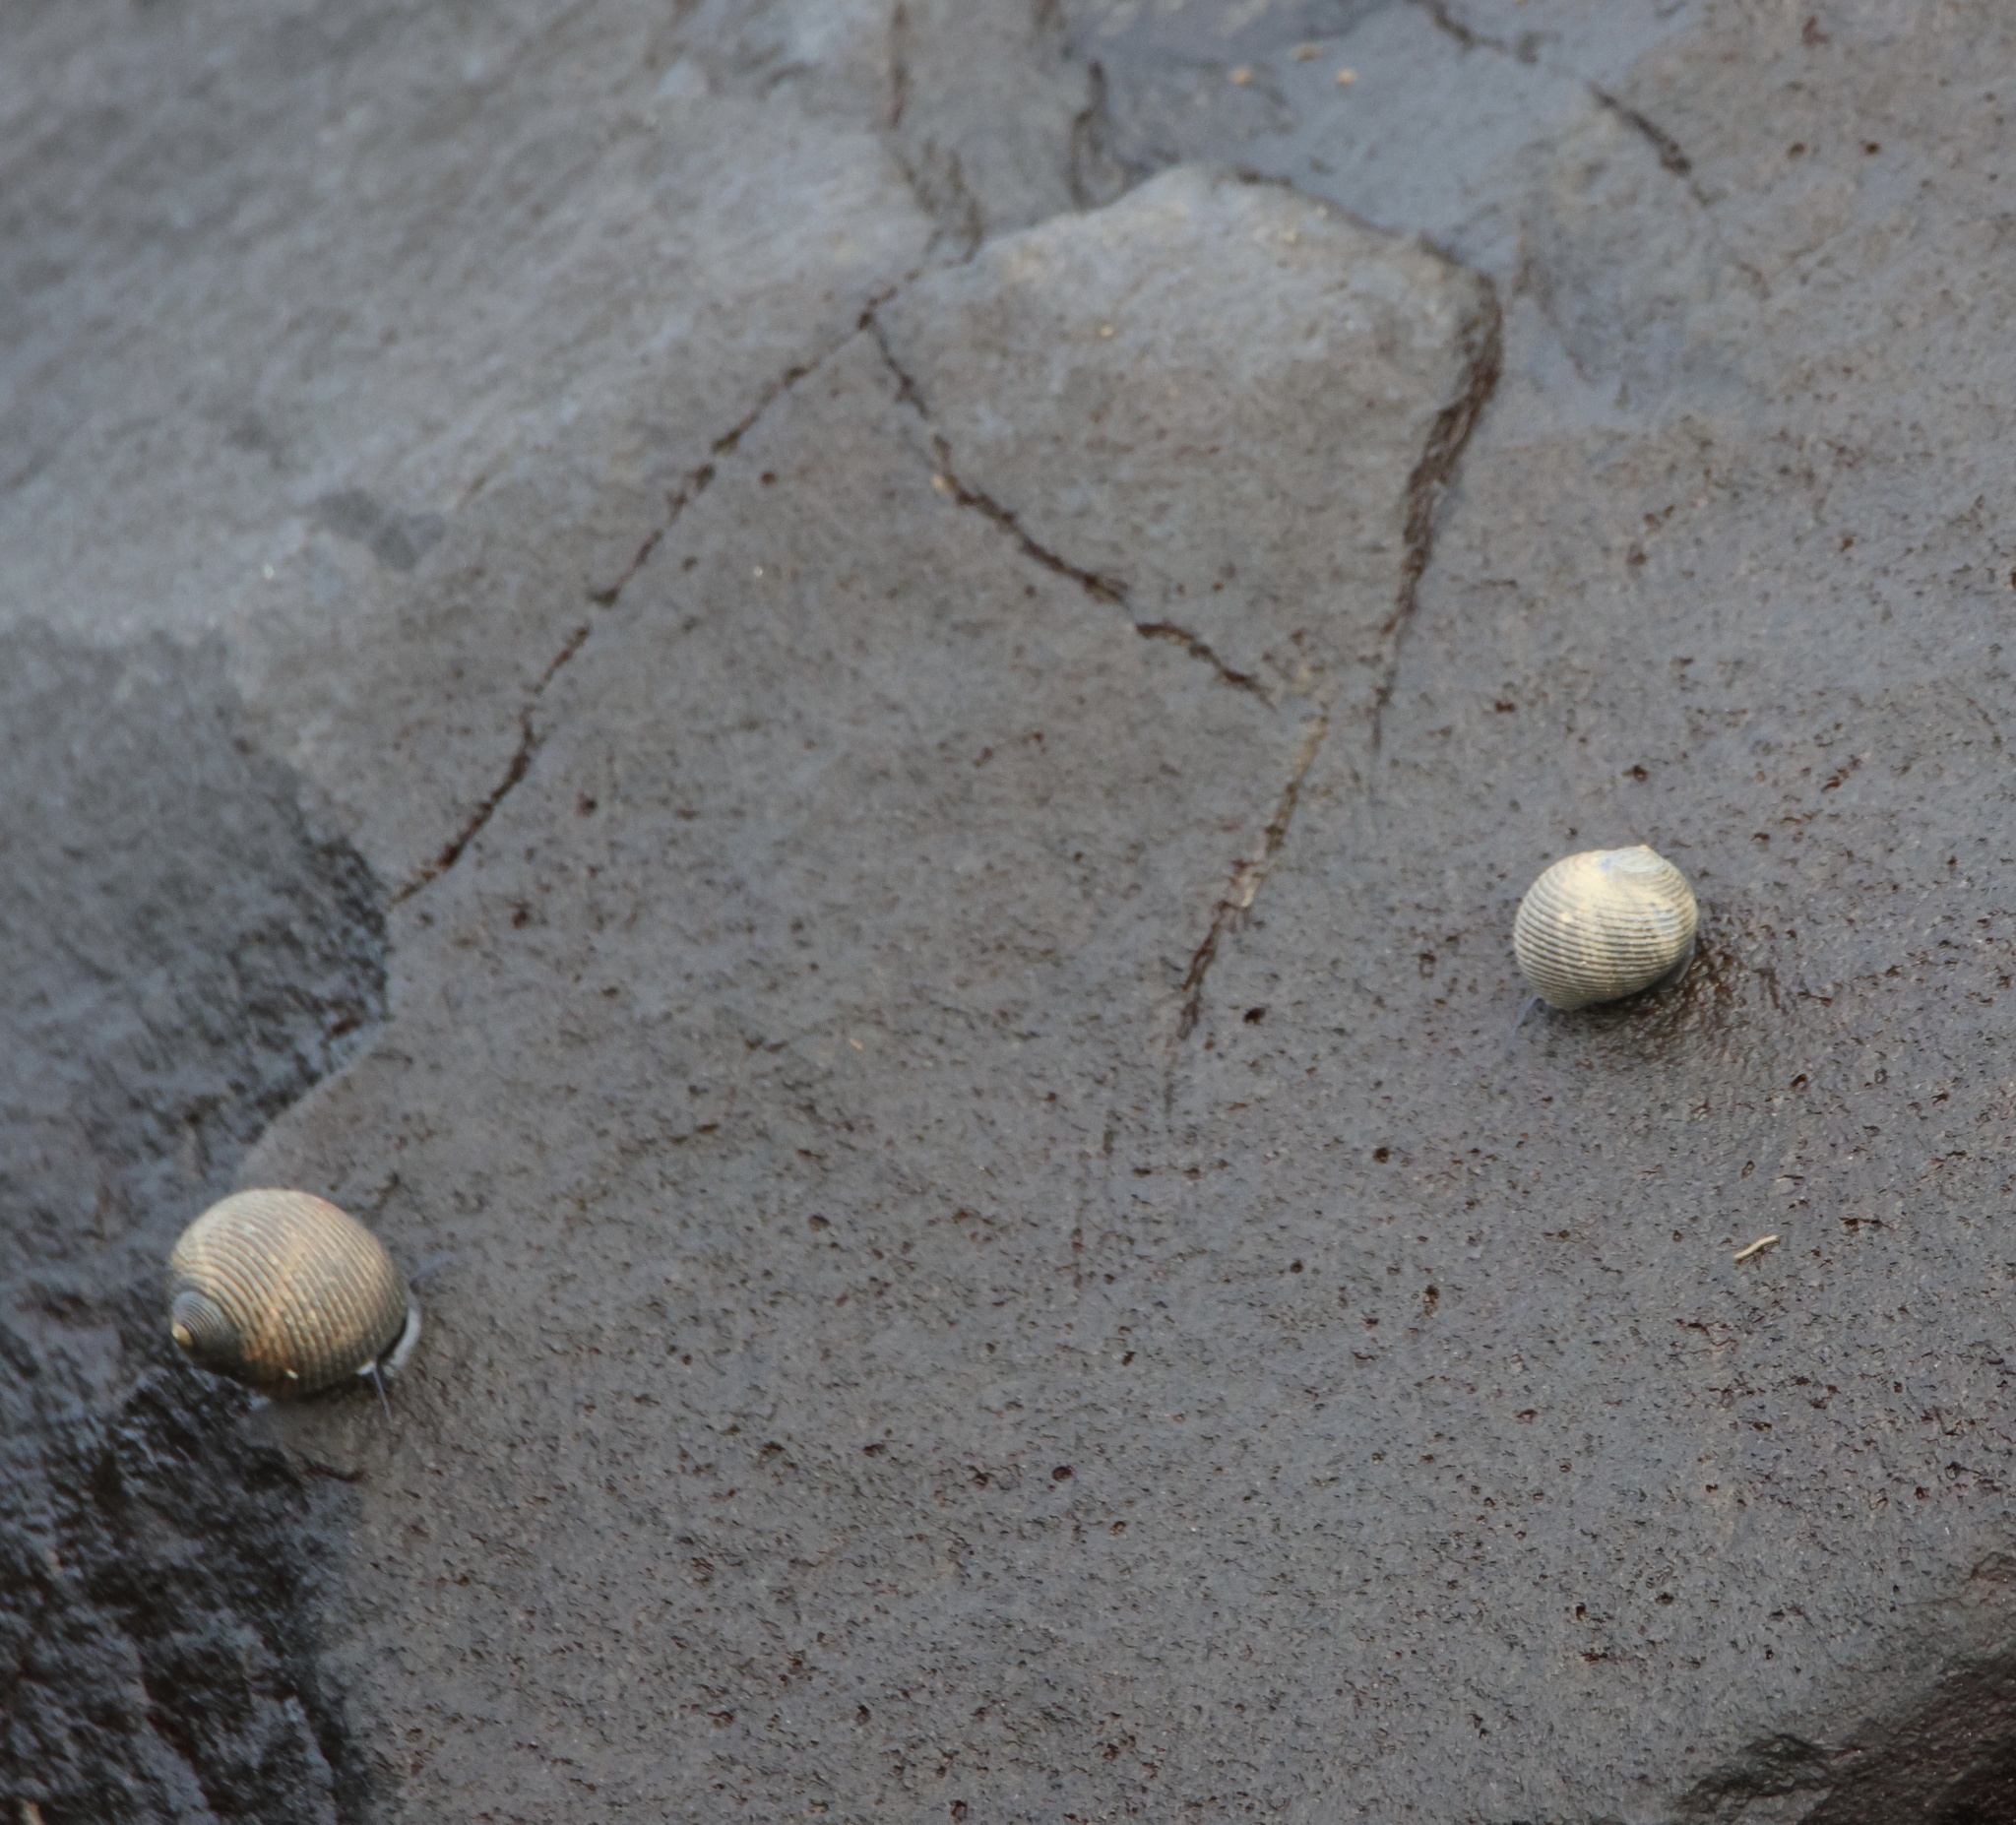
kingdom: Animalia
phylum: Mollusca
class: Gastropoda
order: Cycloneritida
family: Neritidae
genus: Nerita
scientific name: Nerita scabricosta
